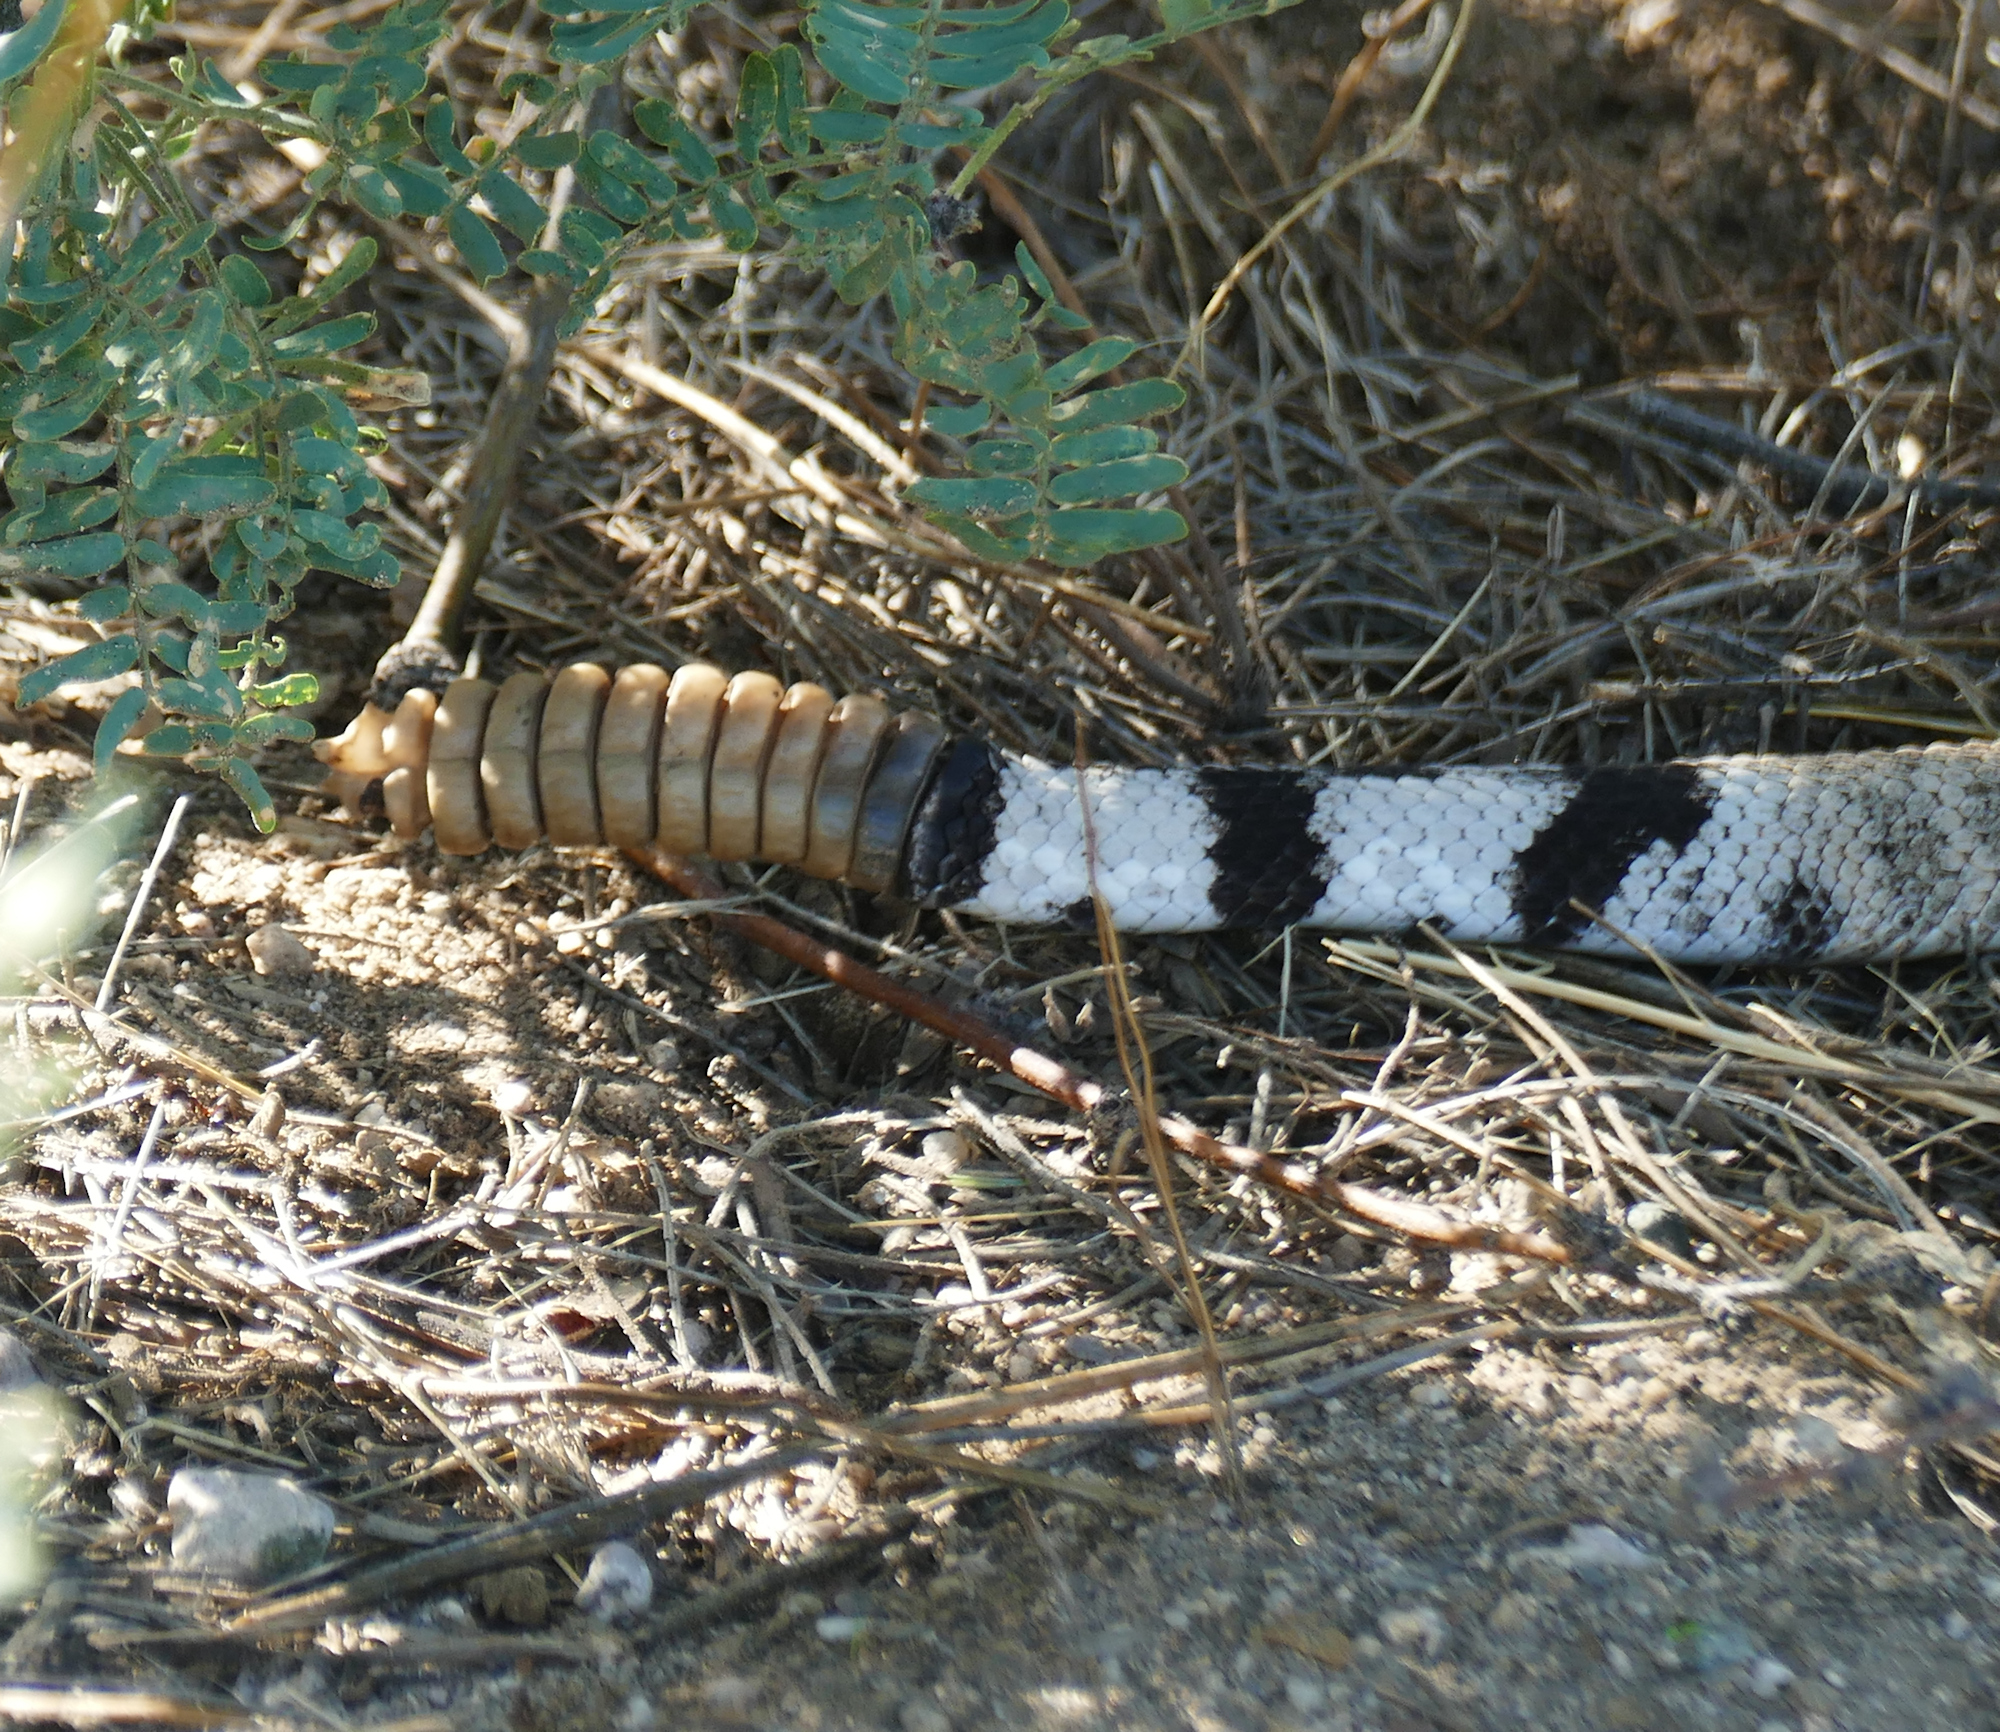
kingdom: Animalia
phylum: Chordata
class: Squamata
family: Viperidae
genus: Crotalus
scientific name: Crotalus atrox
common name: Western diamond-backed rattlesnake
